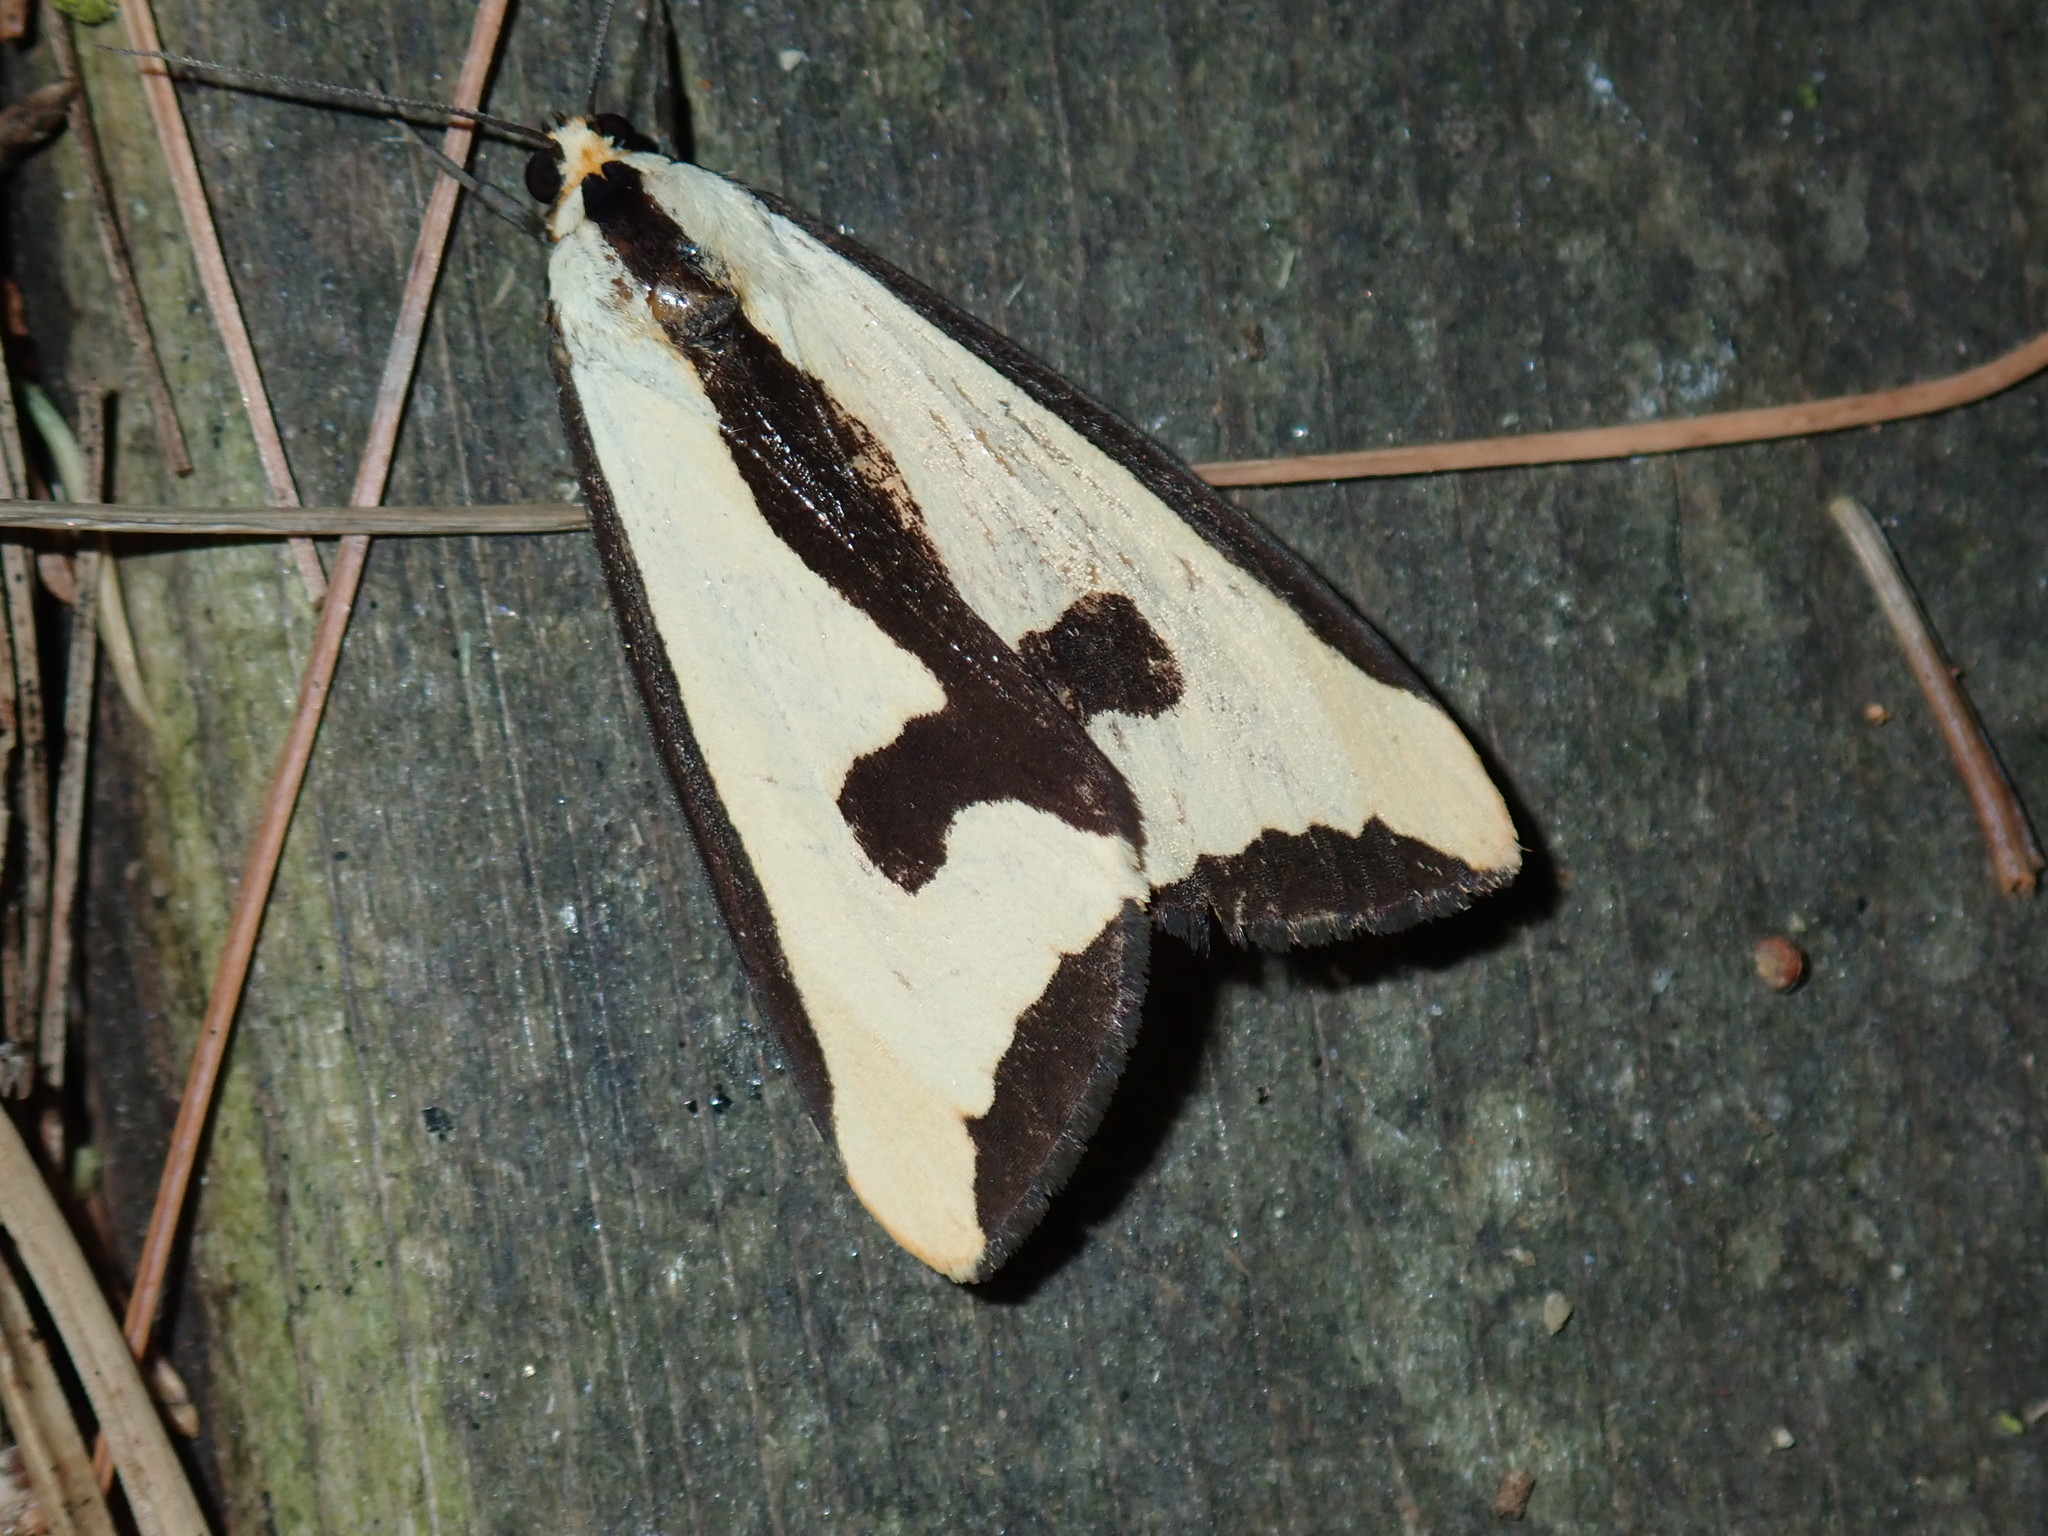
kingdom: Animalia
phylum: Arthropoda
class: Insecta
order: Lepidoptera
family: Erebidae
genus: Haploa
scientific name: Haploa clymene
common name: Clymene moth
